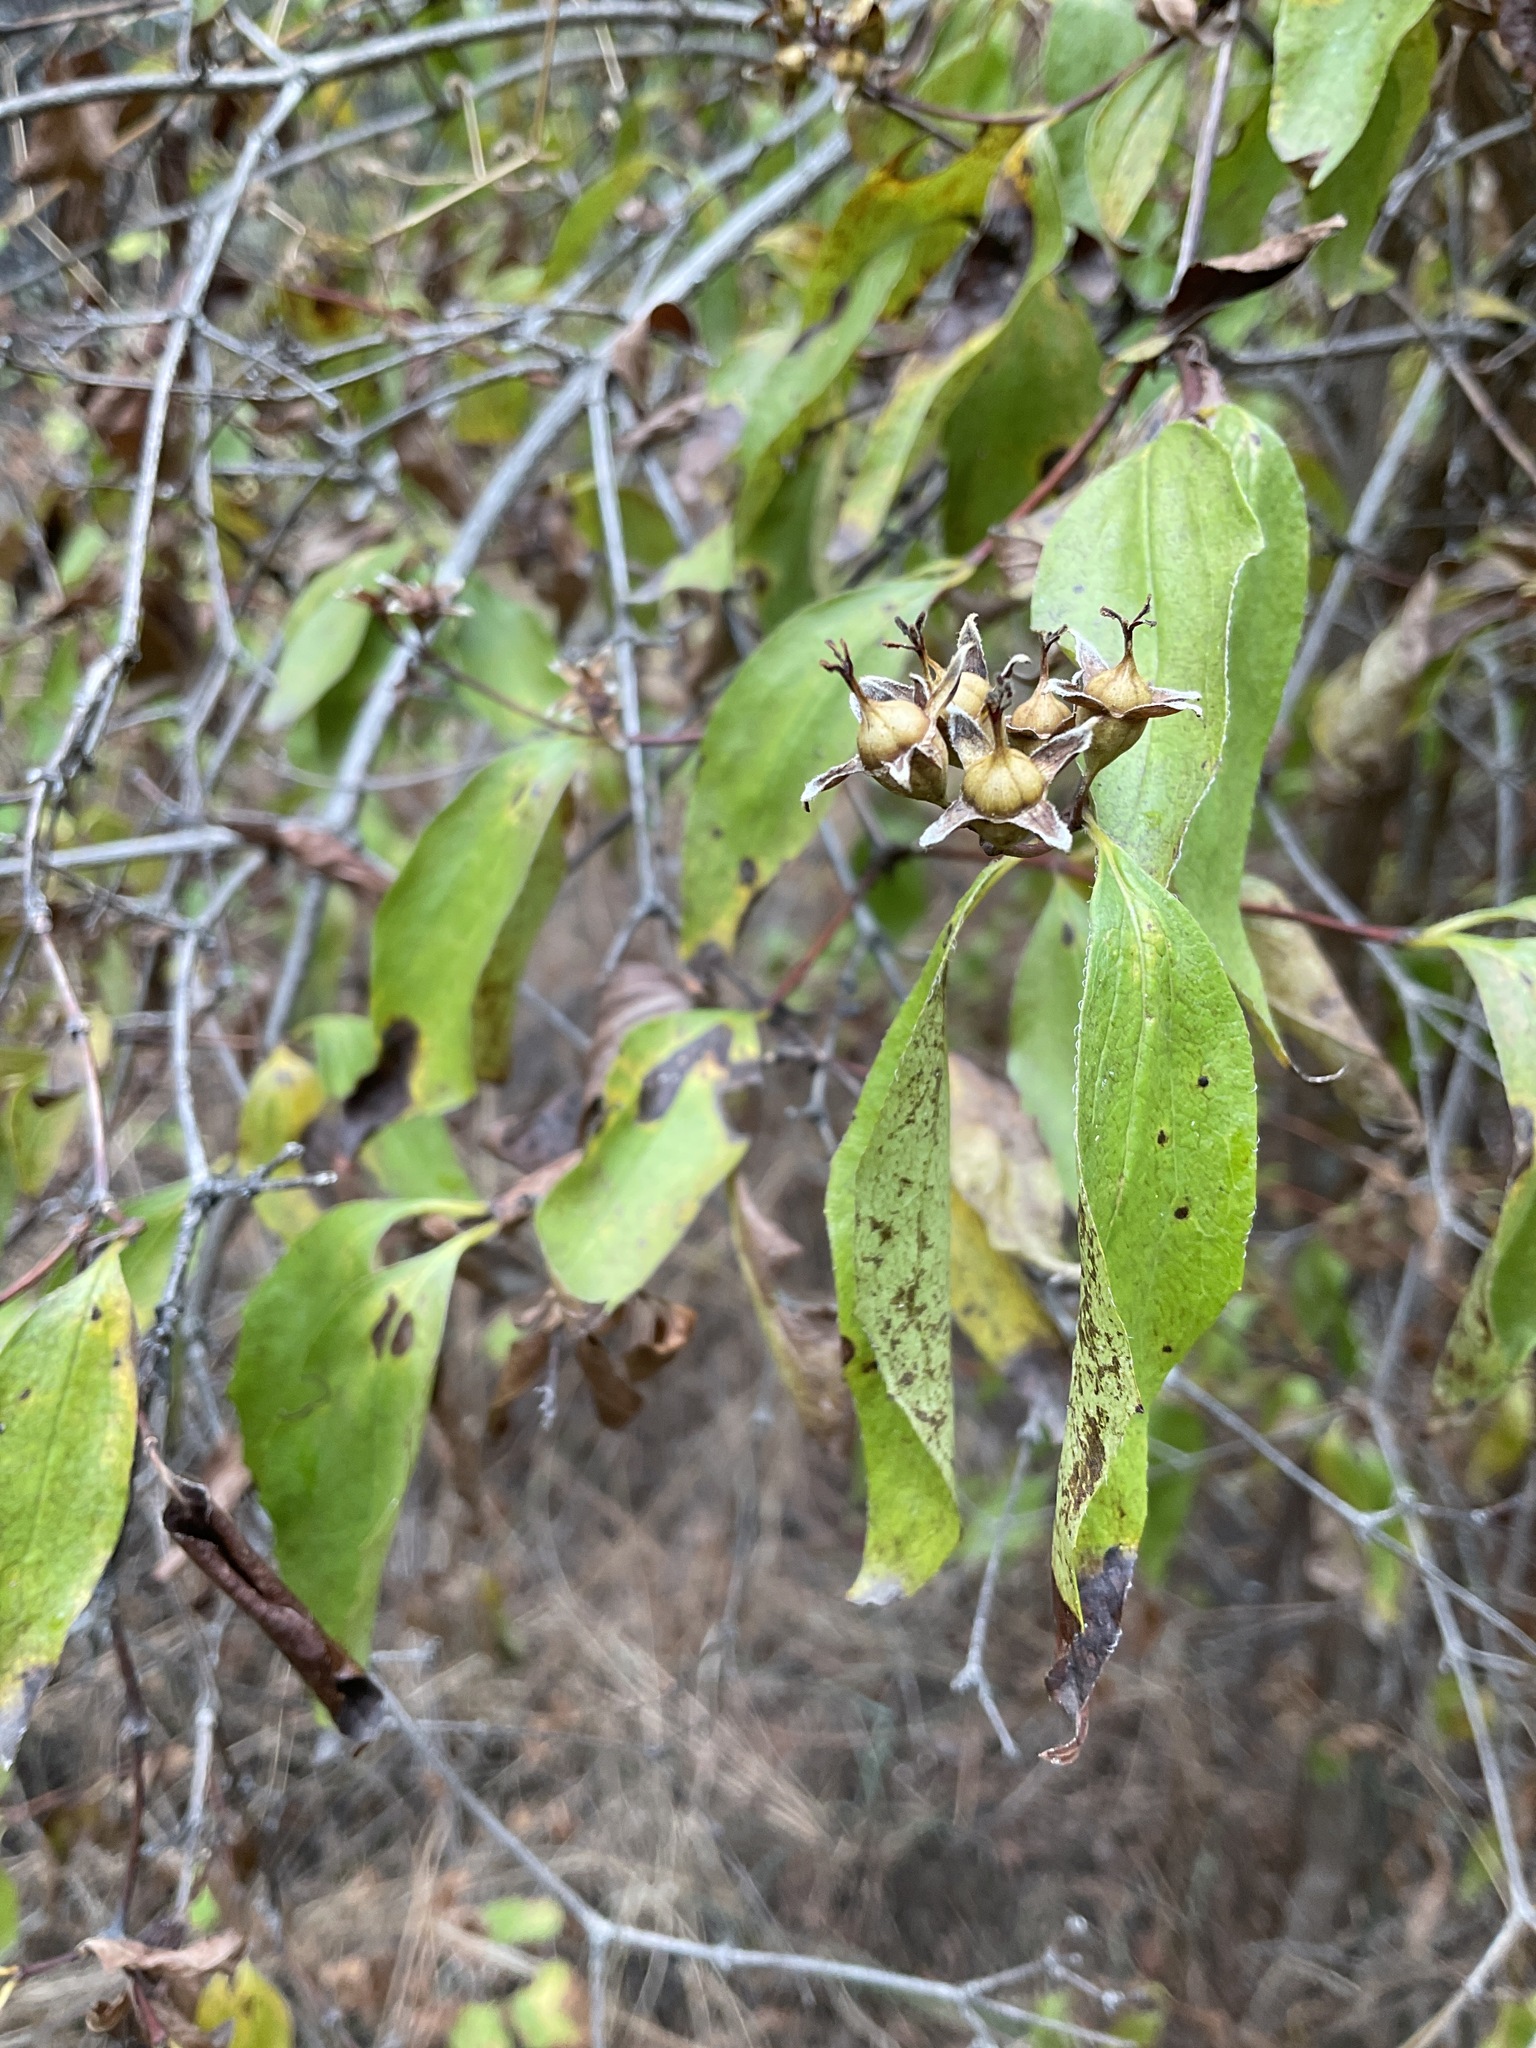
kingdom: Plantae
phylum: Tracheophyta
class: Magnoliopsida
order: Cornales
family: Hydrangeaceae
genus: Philadelphus
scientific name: Philadelphus lewisii
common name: Lewis's mock orange
